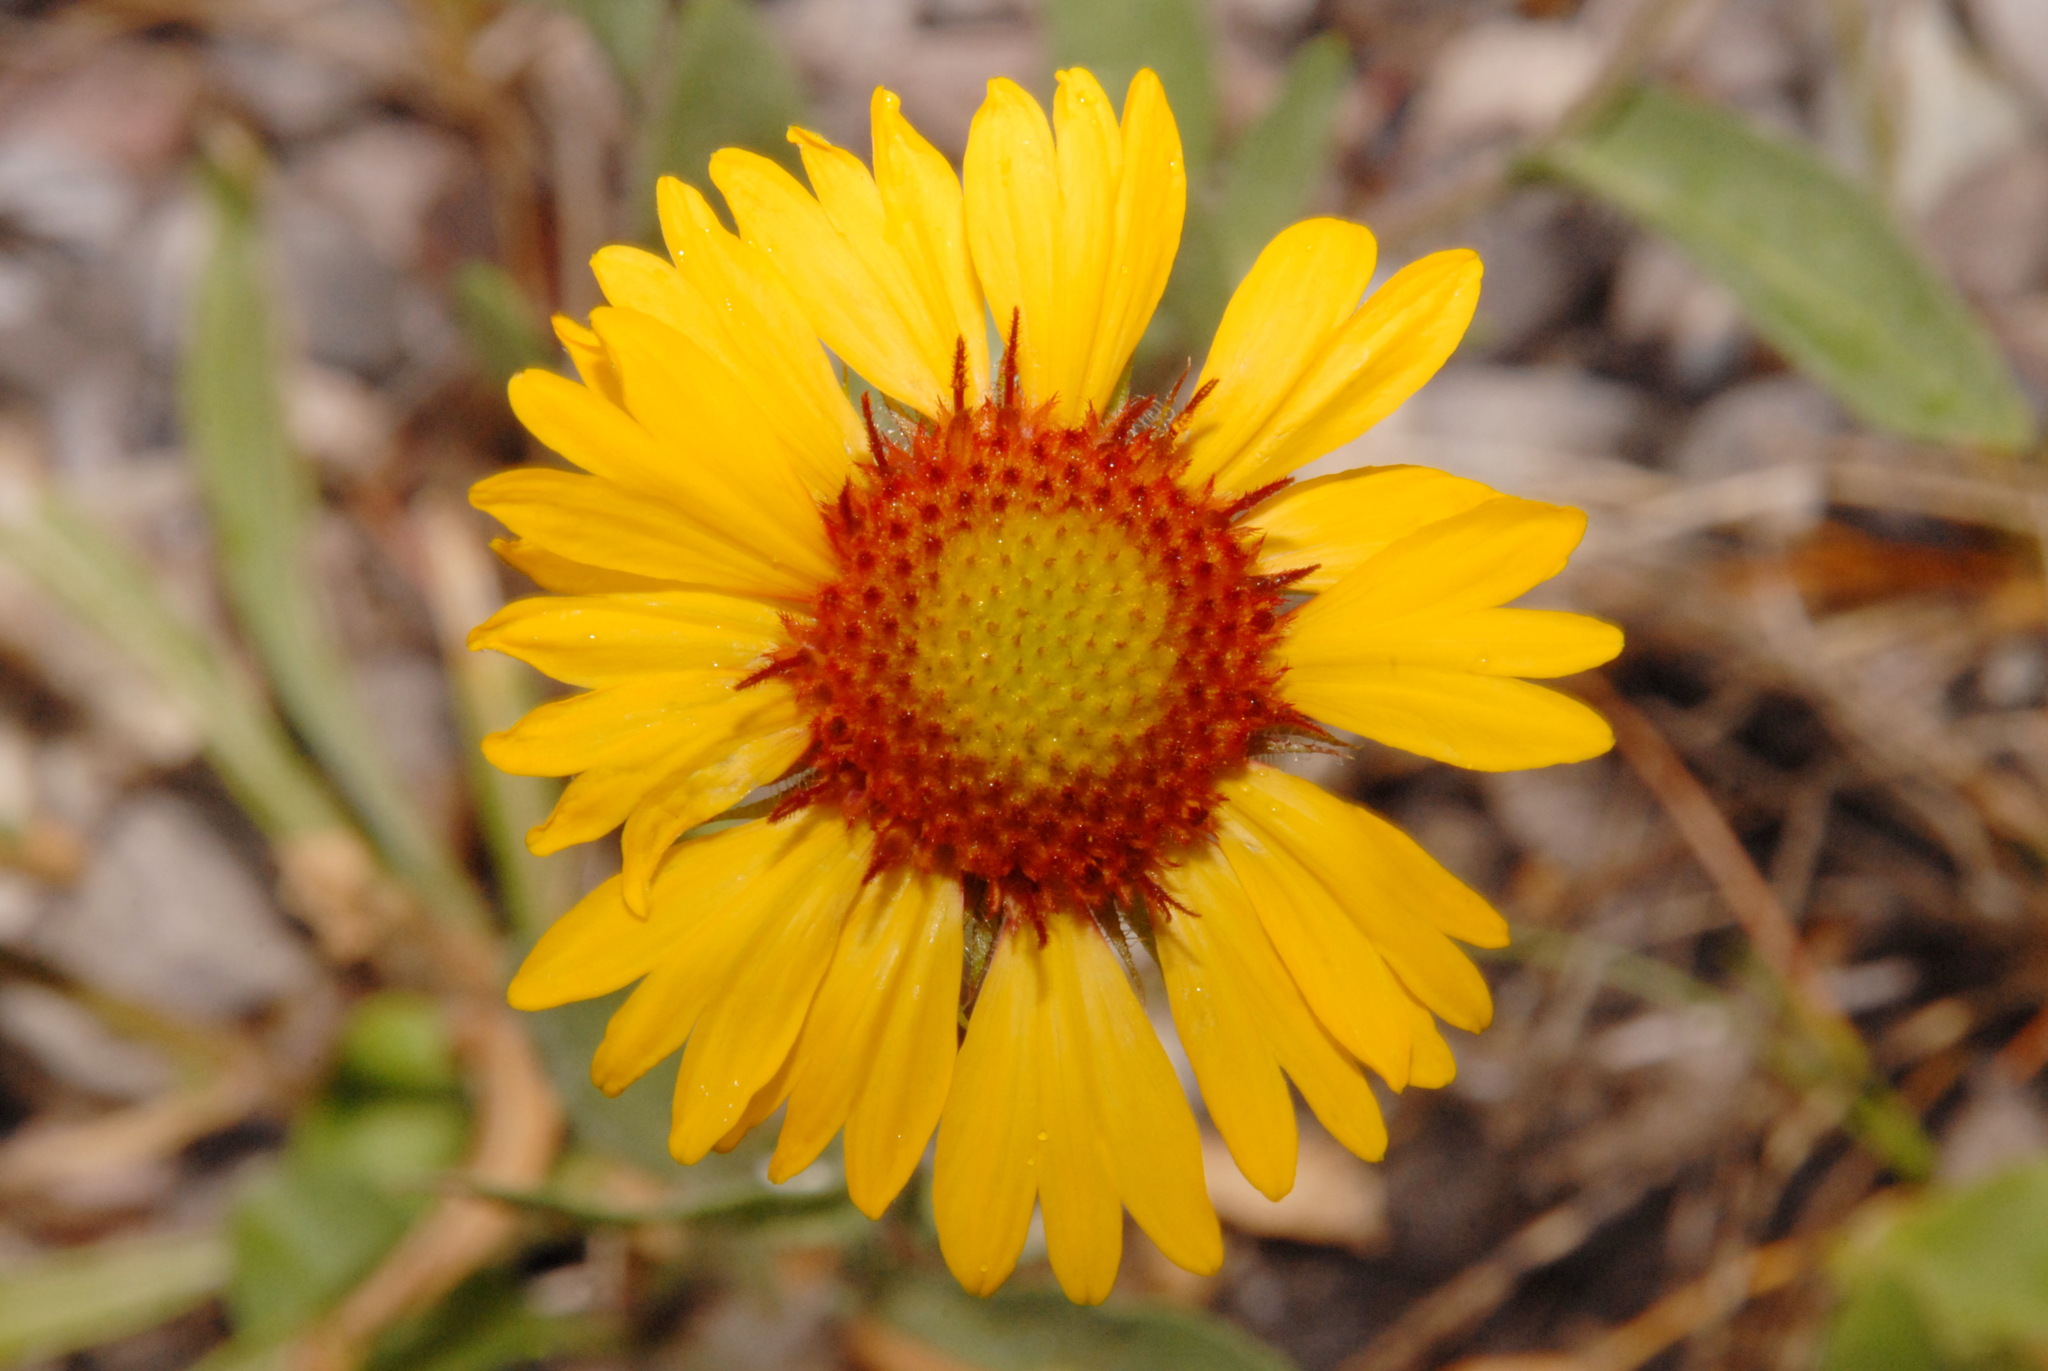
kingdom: Plantae
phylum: Tracheophyta
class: Magnoliopsida
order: Asterales
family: Asteraceae
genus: Gaillardia
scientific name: Gaillardia aristata
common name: Blanket-flower
